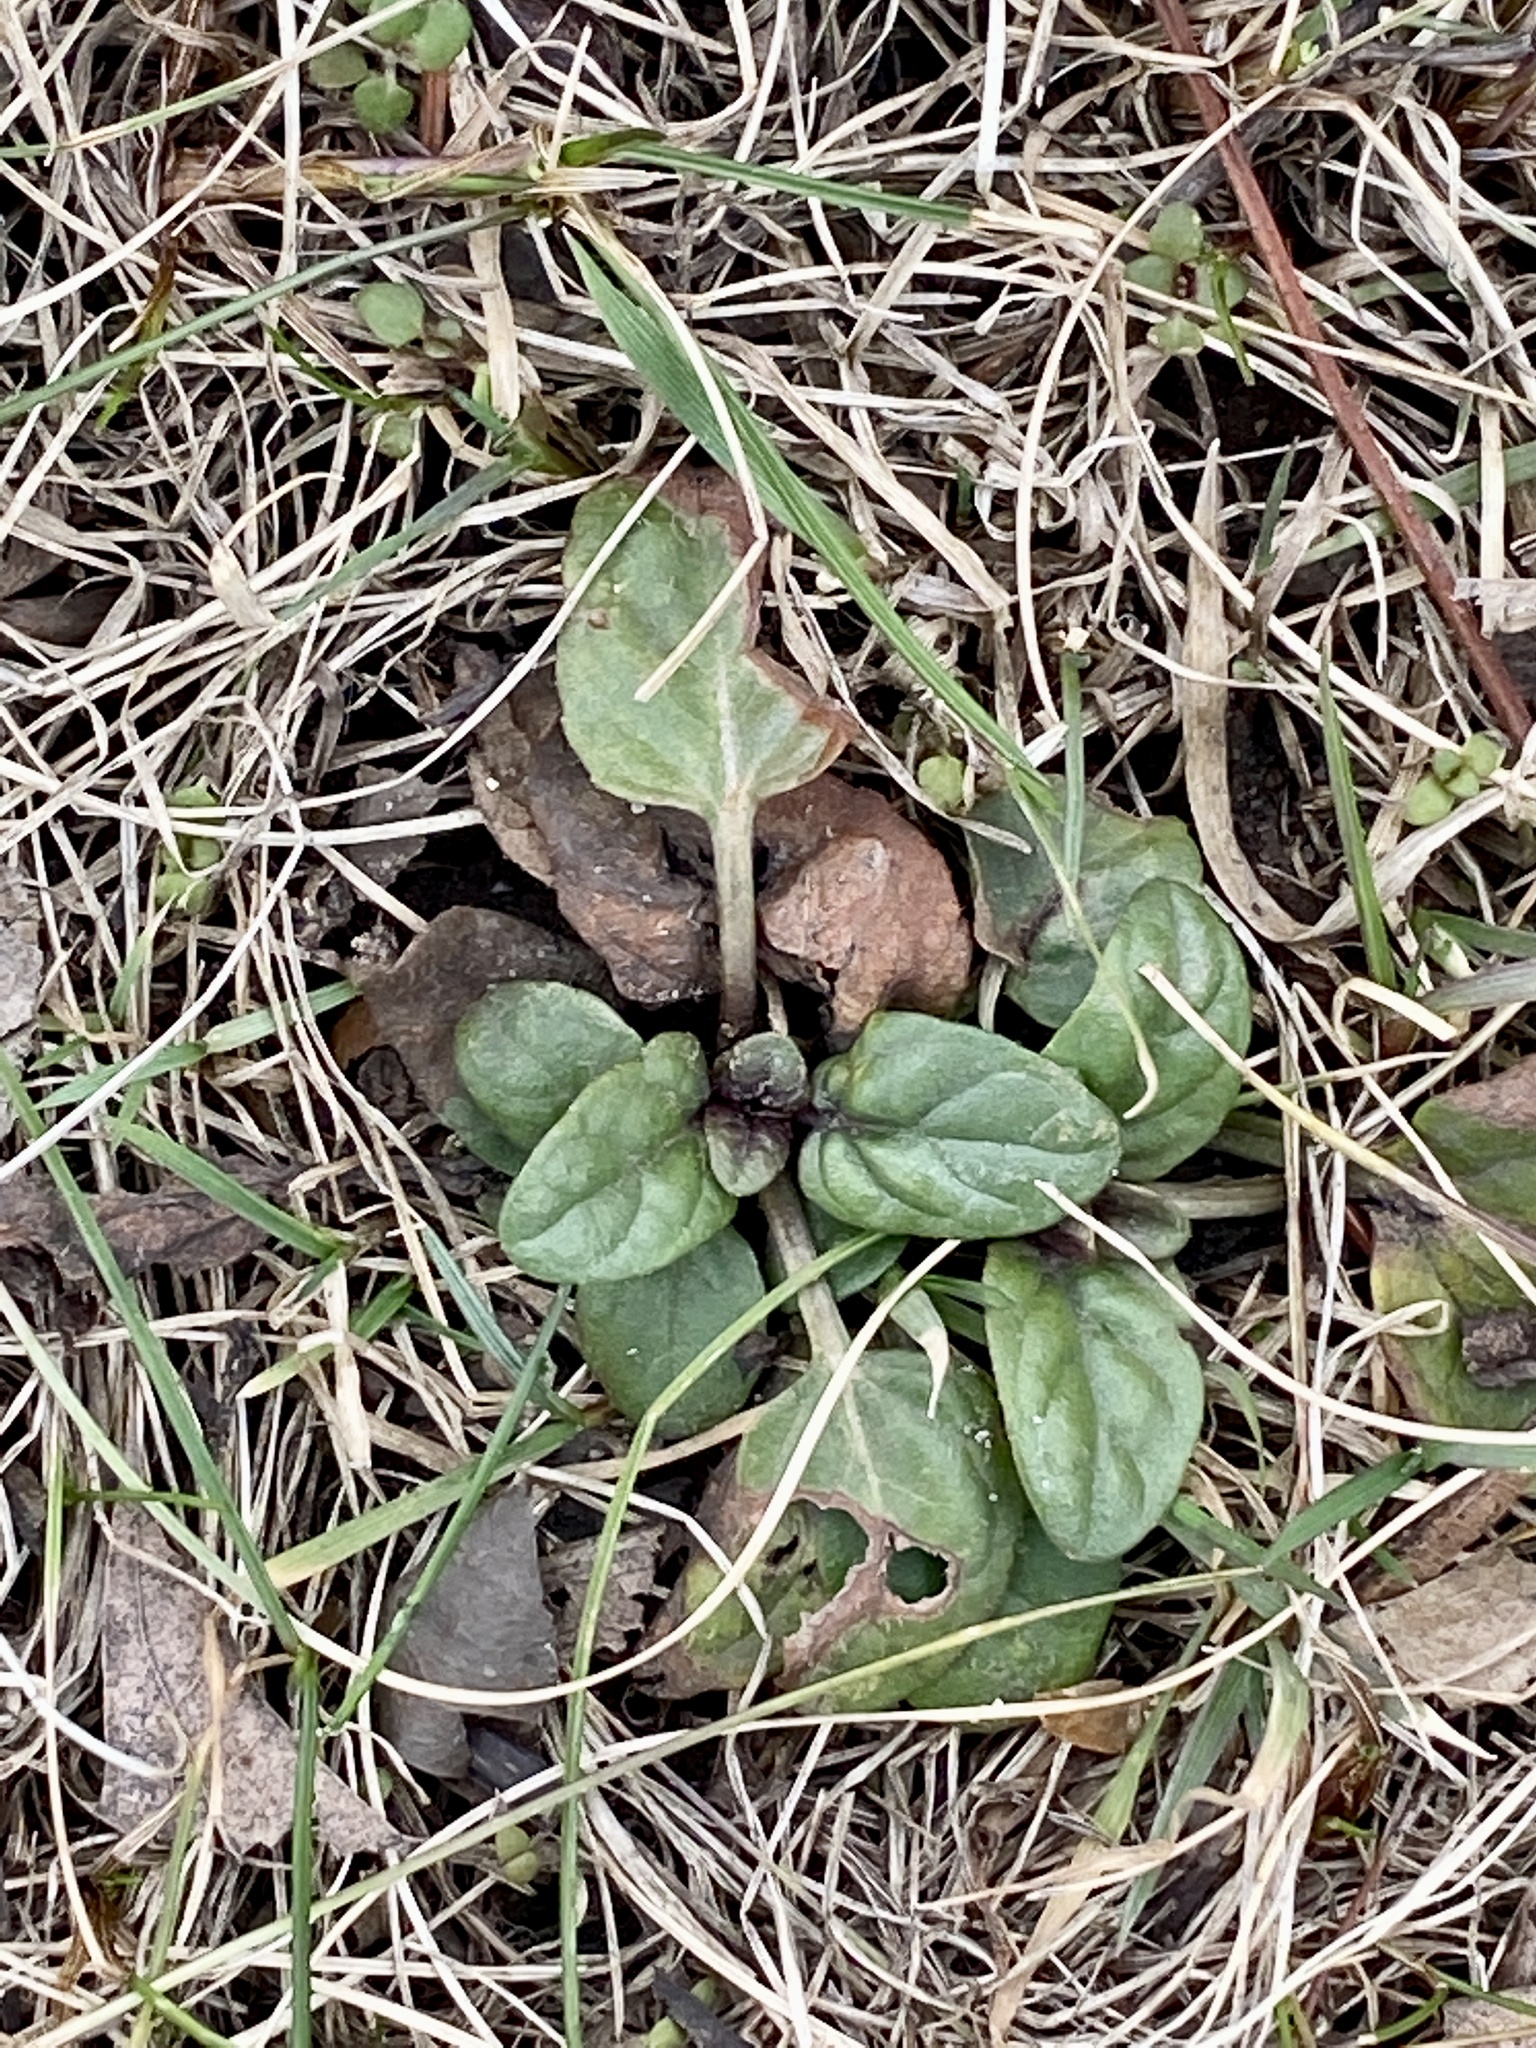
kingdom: Plantae
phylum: Tracheophyta
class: Magnoliopsida
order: Lamiales
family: Lamiaceae
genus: Prunella
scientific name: Prunella vulgaris
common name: Heal-all
